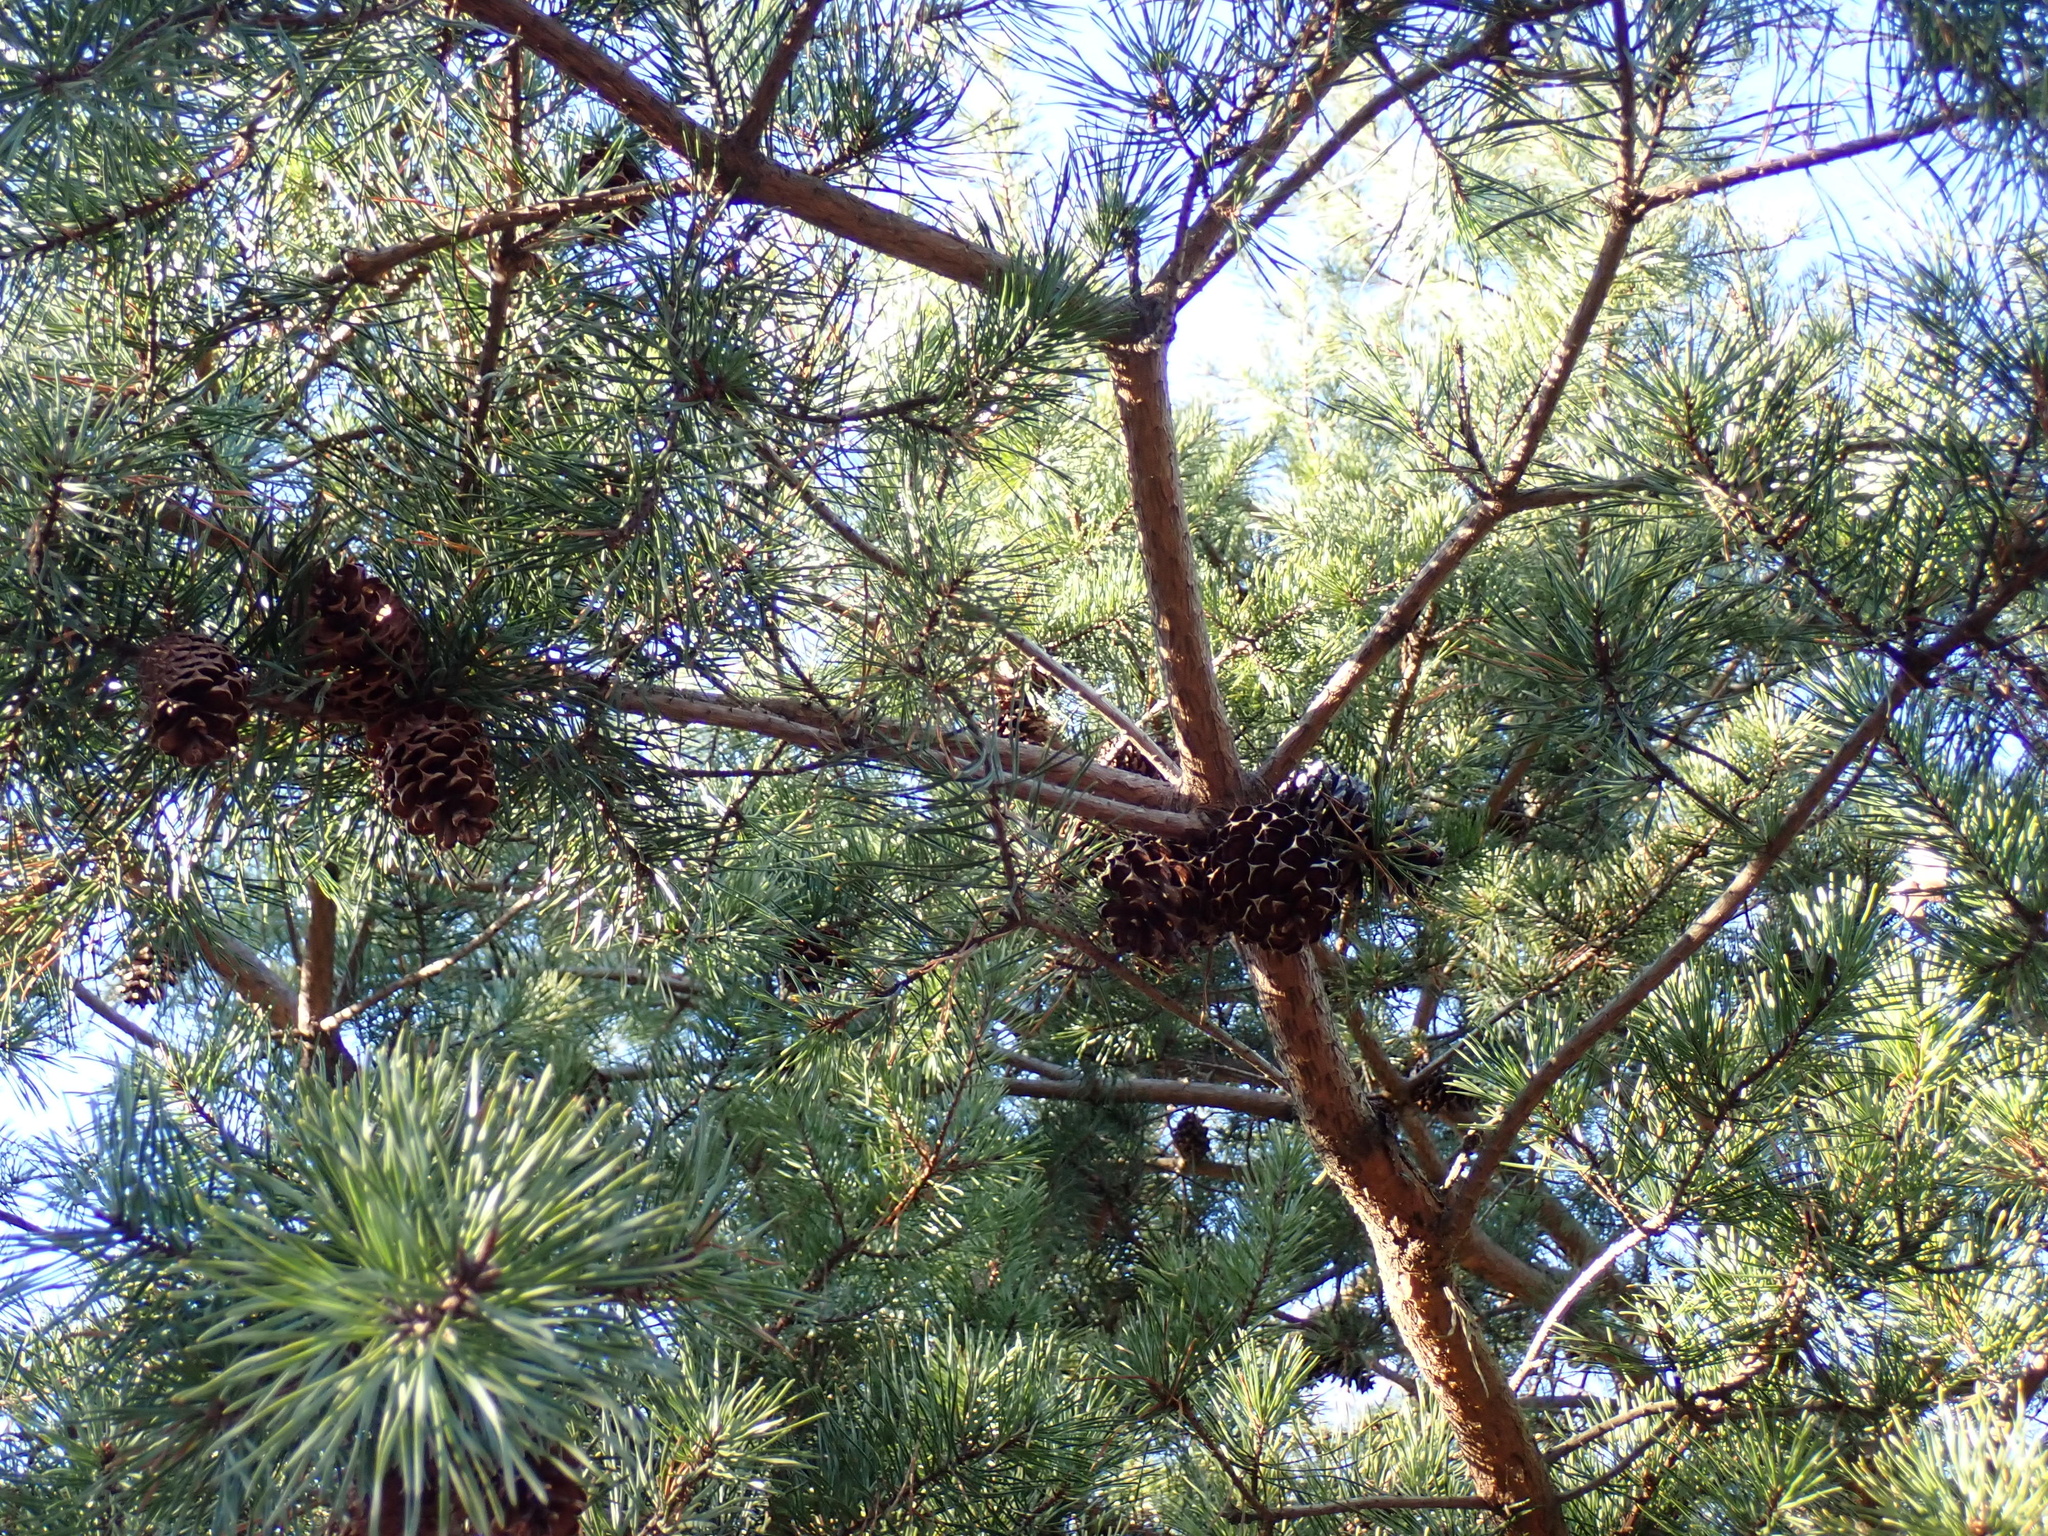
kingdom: Plantae
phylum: Tracheophyta
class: Pinopsida
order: Pinales
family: Pinaceae
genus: Pinus
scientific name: Pinus virginiana
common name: Scrub pine
